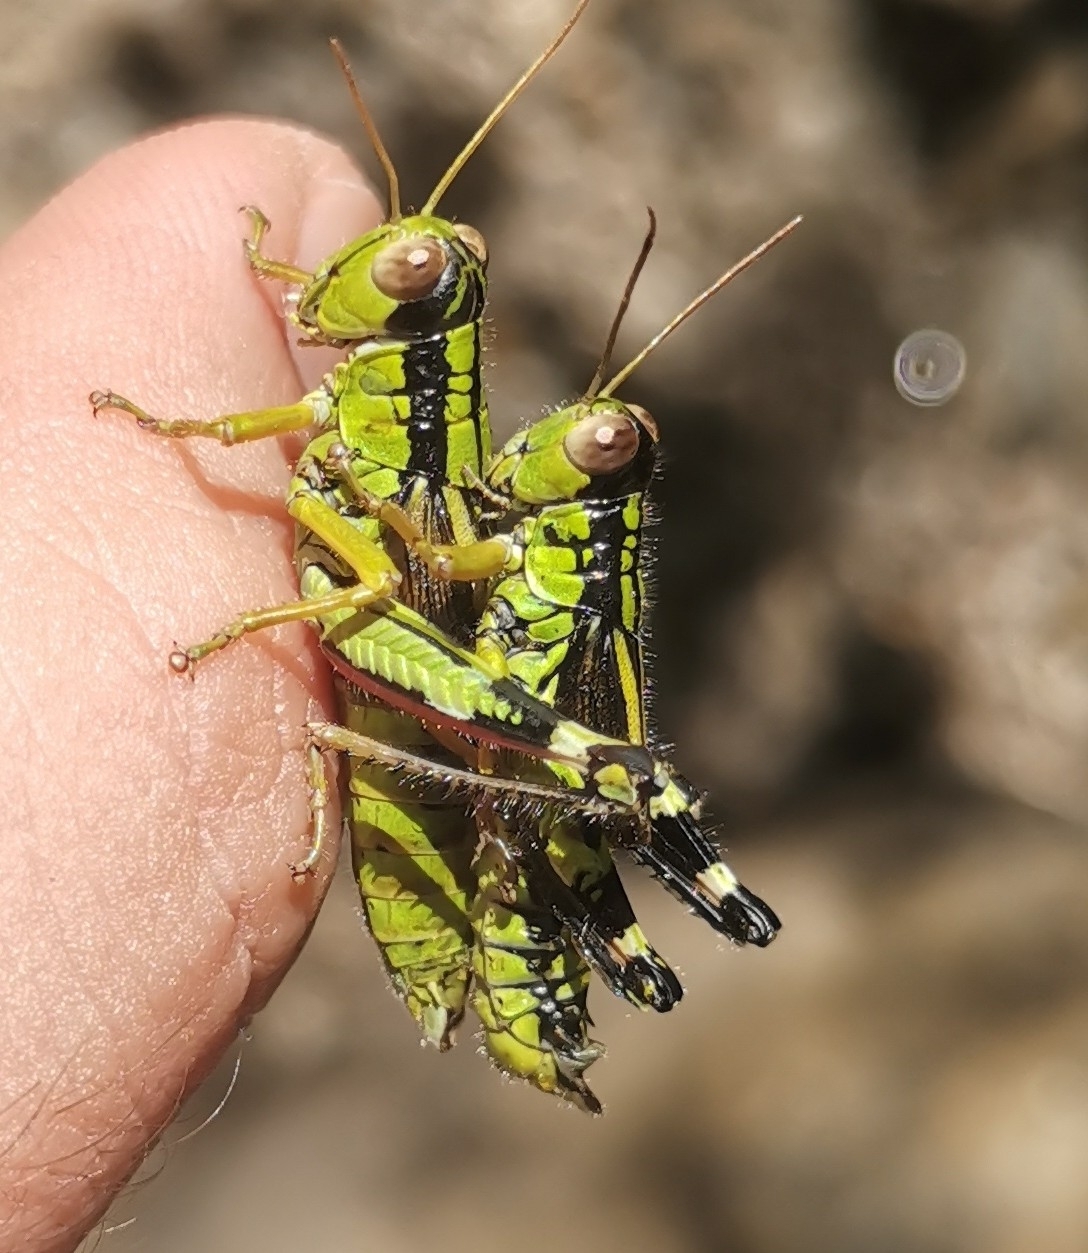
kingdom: Animalia
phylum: Arthropoda
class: Insecta
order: Orthoptera
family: Acrididae
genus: Nadigella
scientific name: Nadigella formosanta
